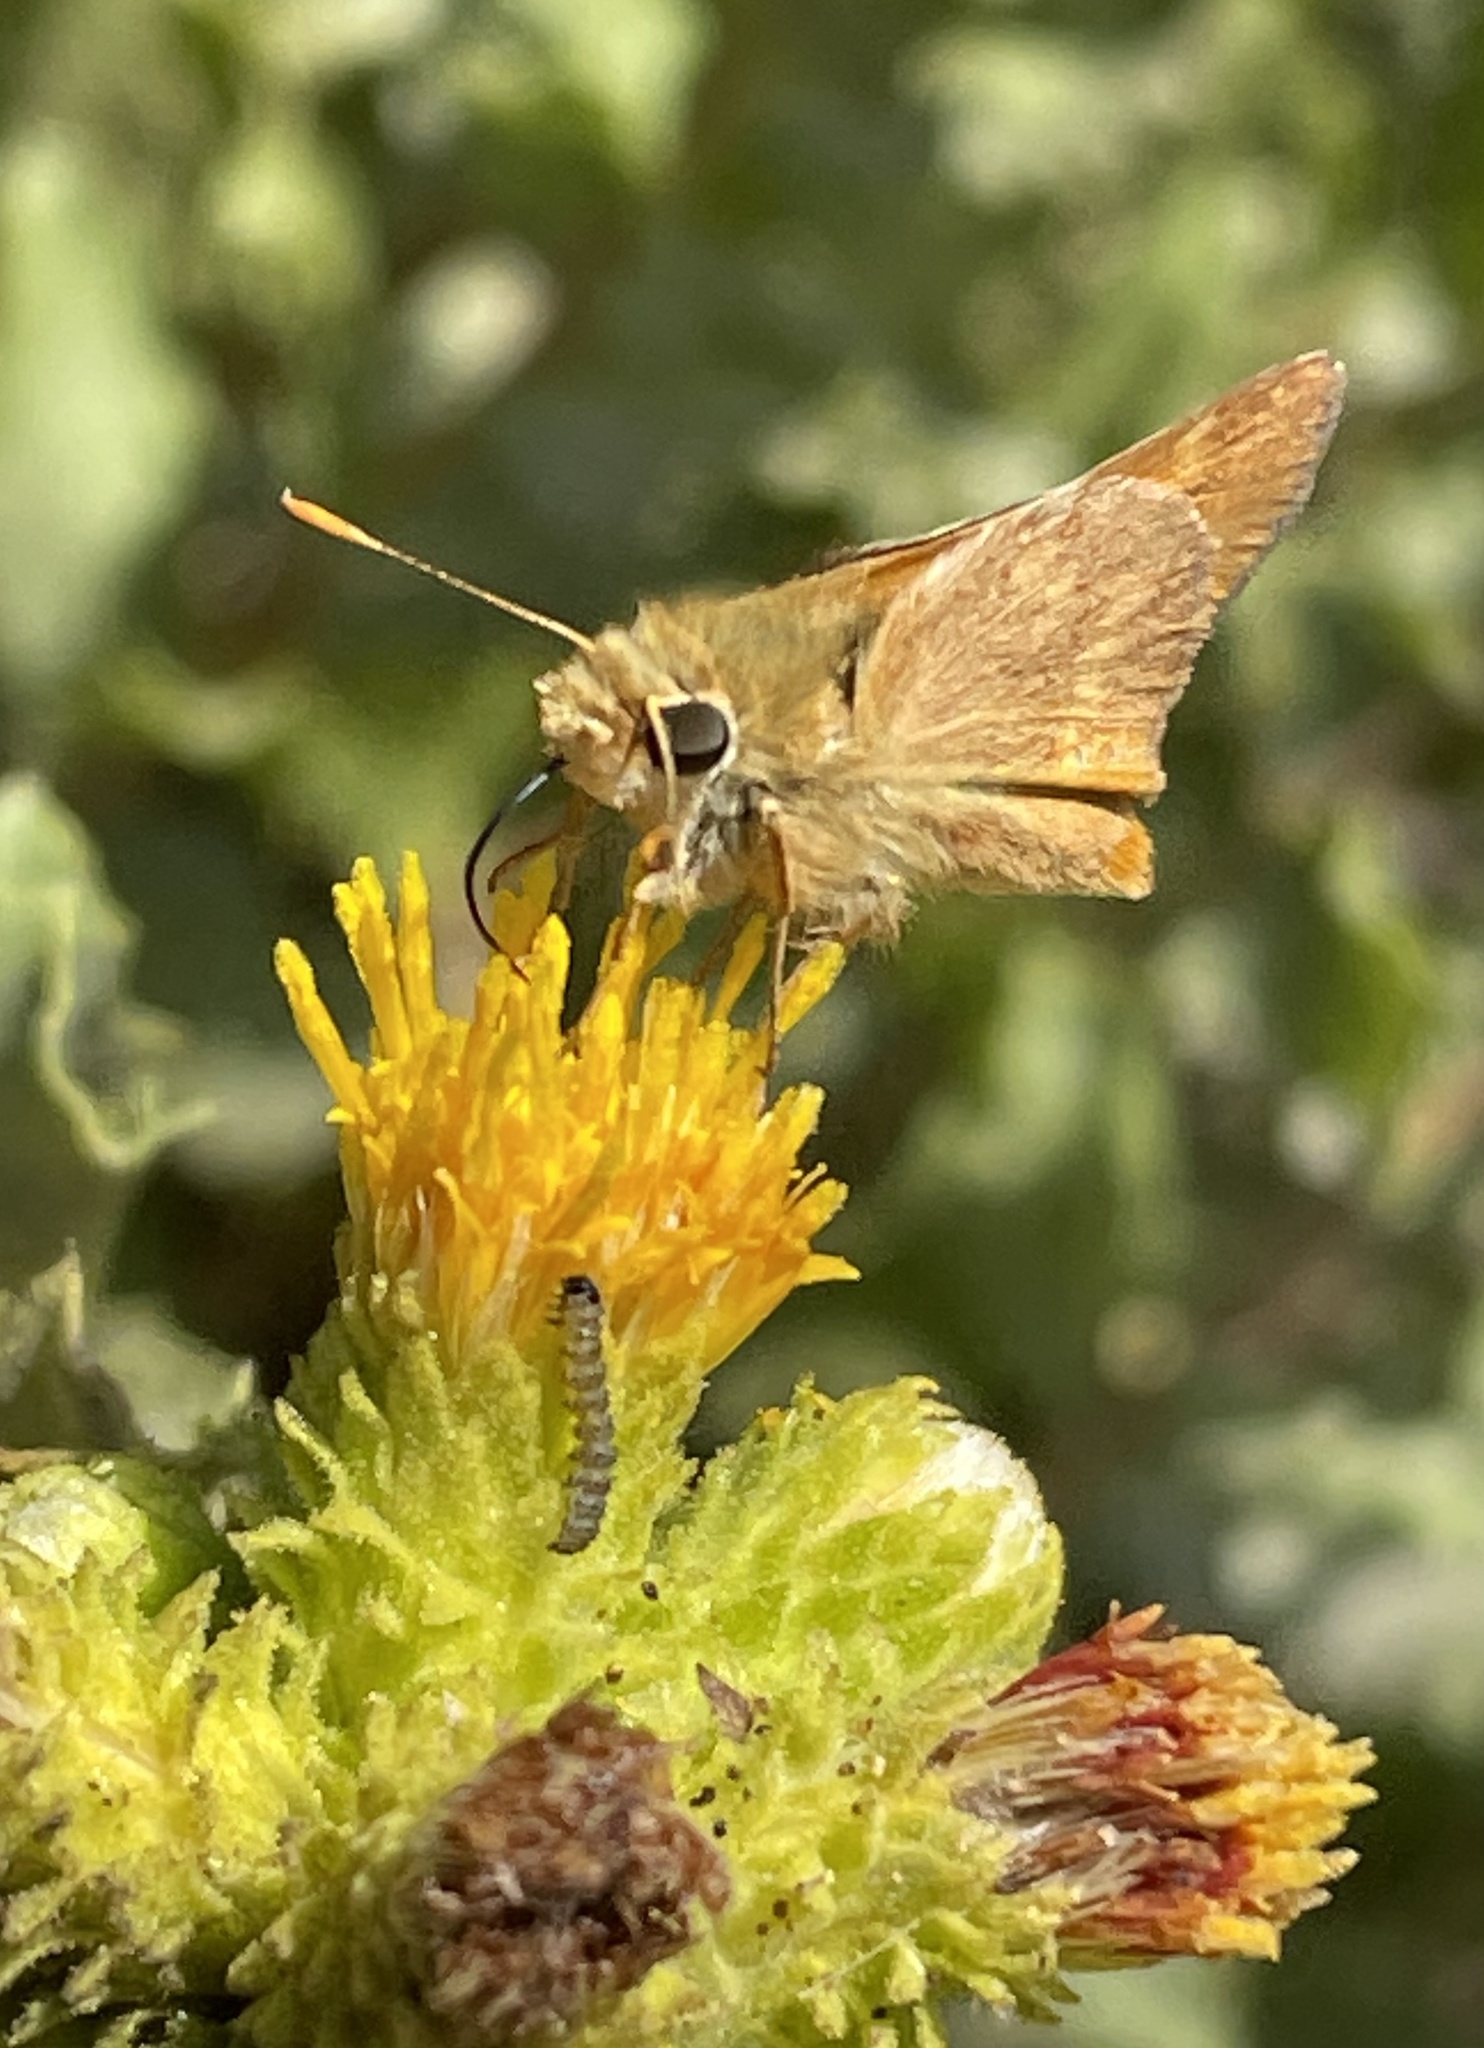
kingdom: Animalia
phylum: Arthropoda
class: Insecta
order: Lepidoptera
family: Hesperiidae
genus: Ochlodes
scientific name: Ochlodes sylvanoides
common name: Woodland skipper
